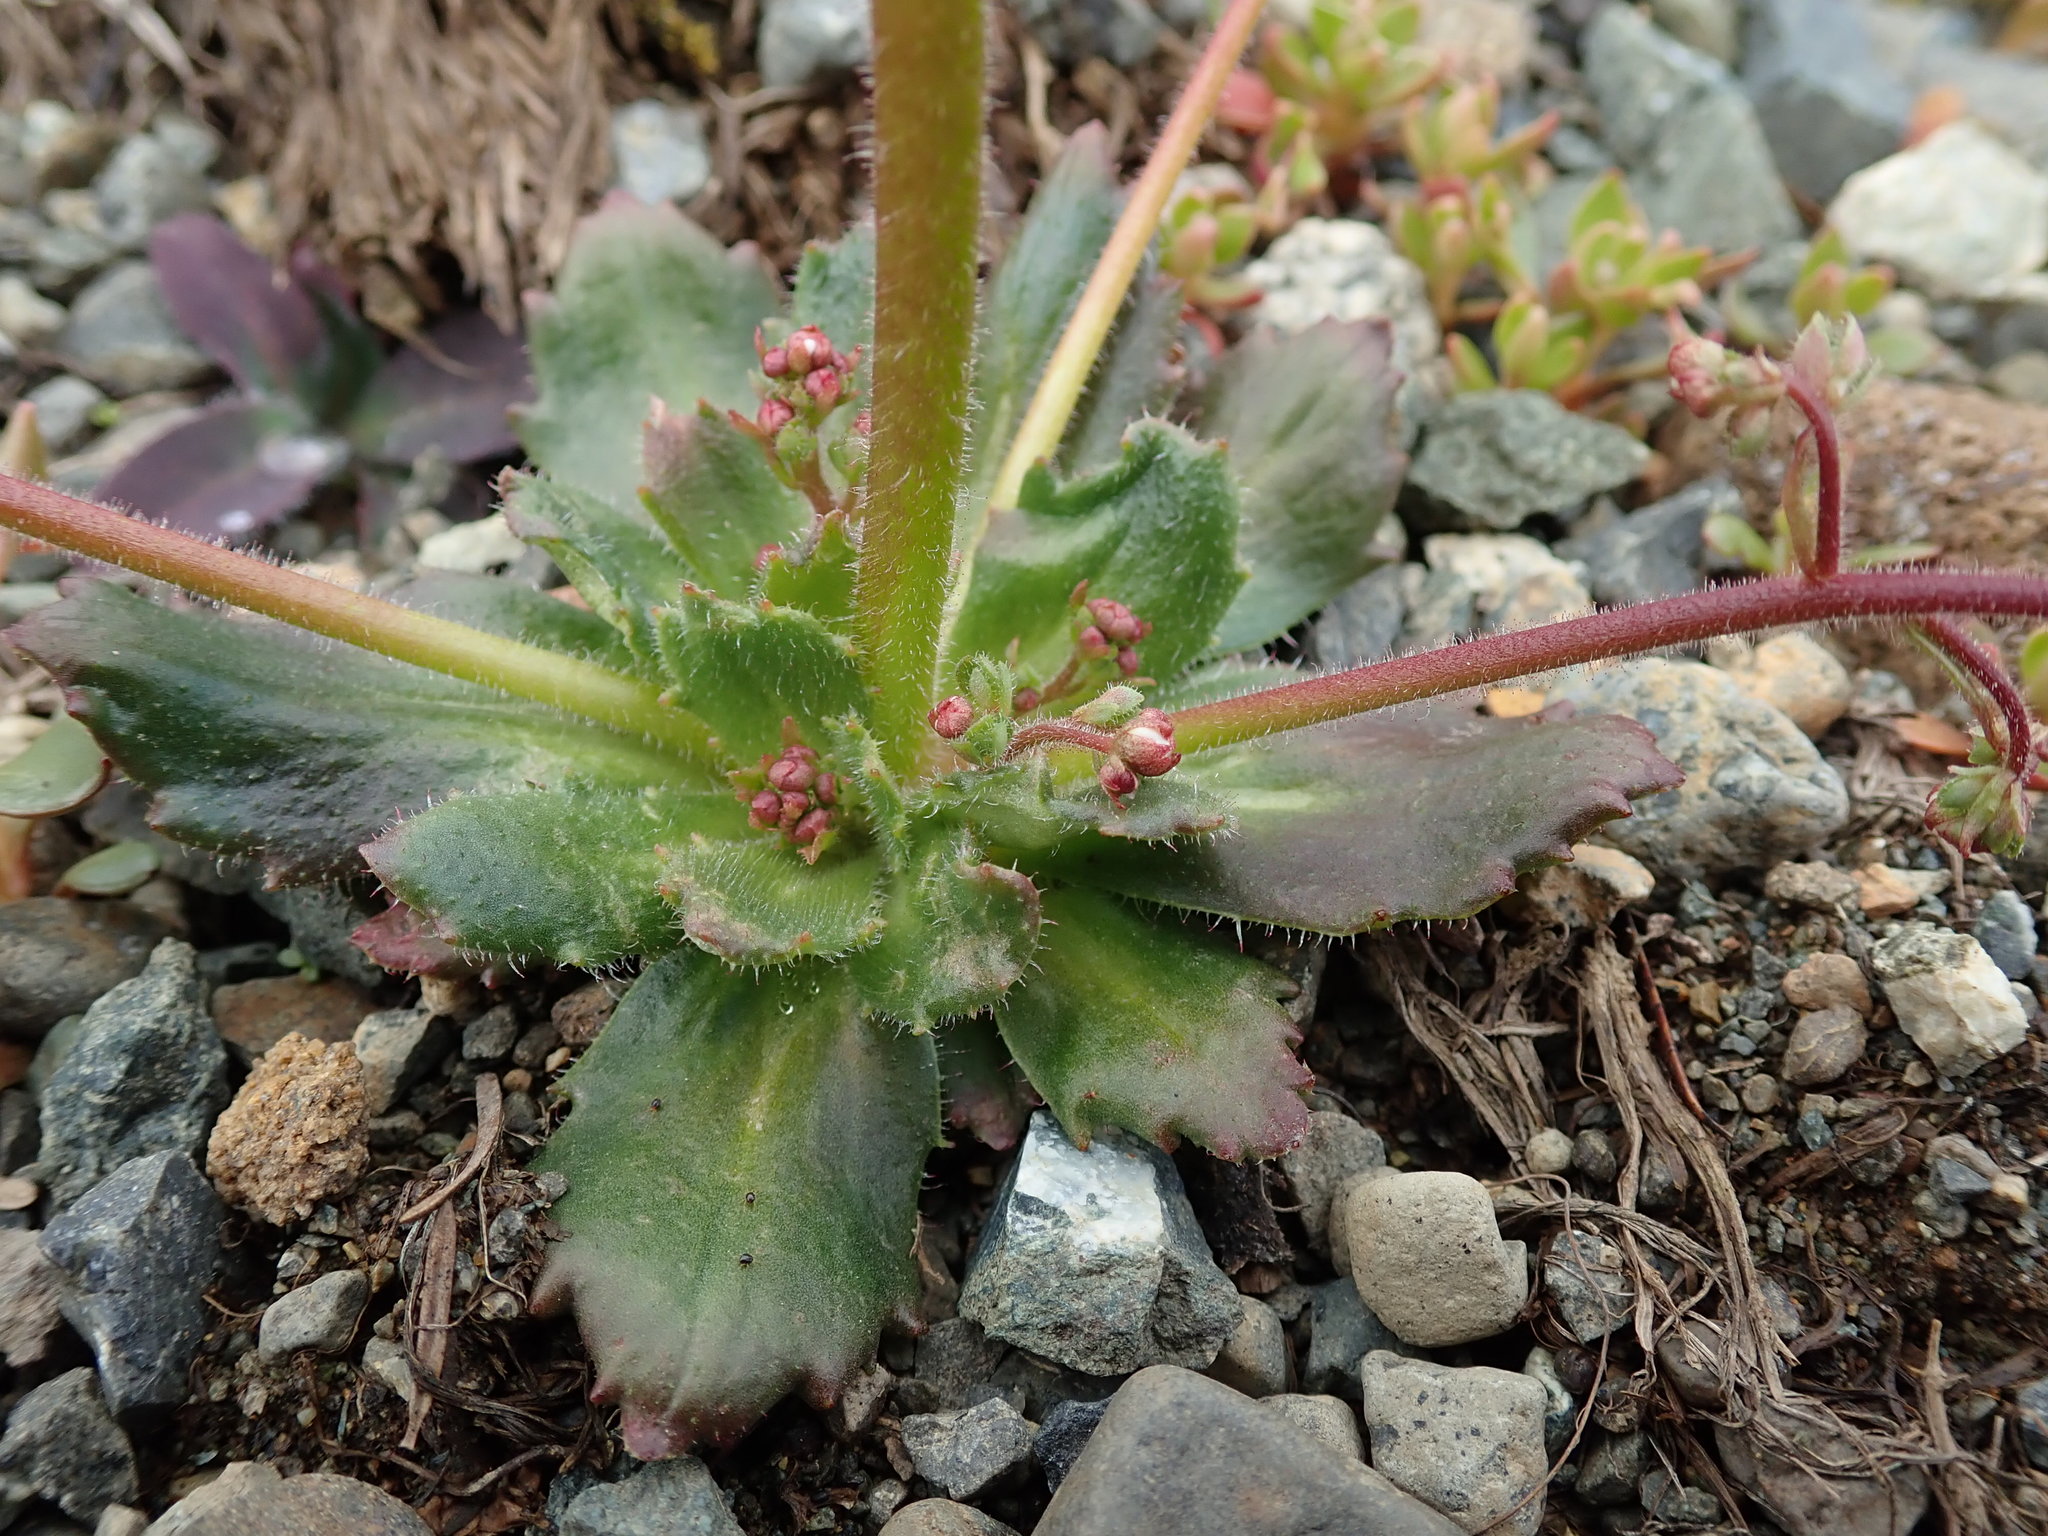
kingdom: Plantae
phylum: Tracheophyta
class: Magnoliopsida
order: Saxifragales
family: Saxifragaceae
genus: Micranthes
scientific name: Micranthes ferruginea
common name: Rusty saxifrage
